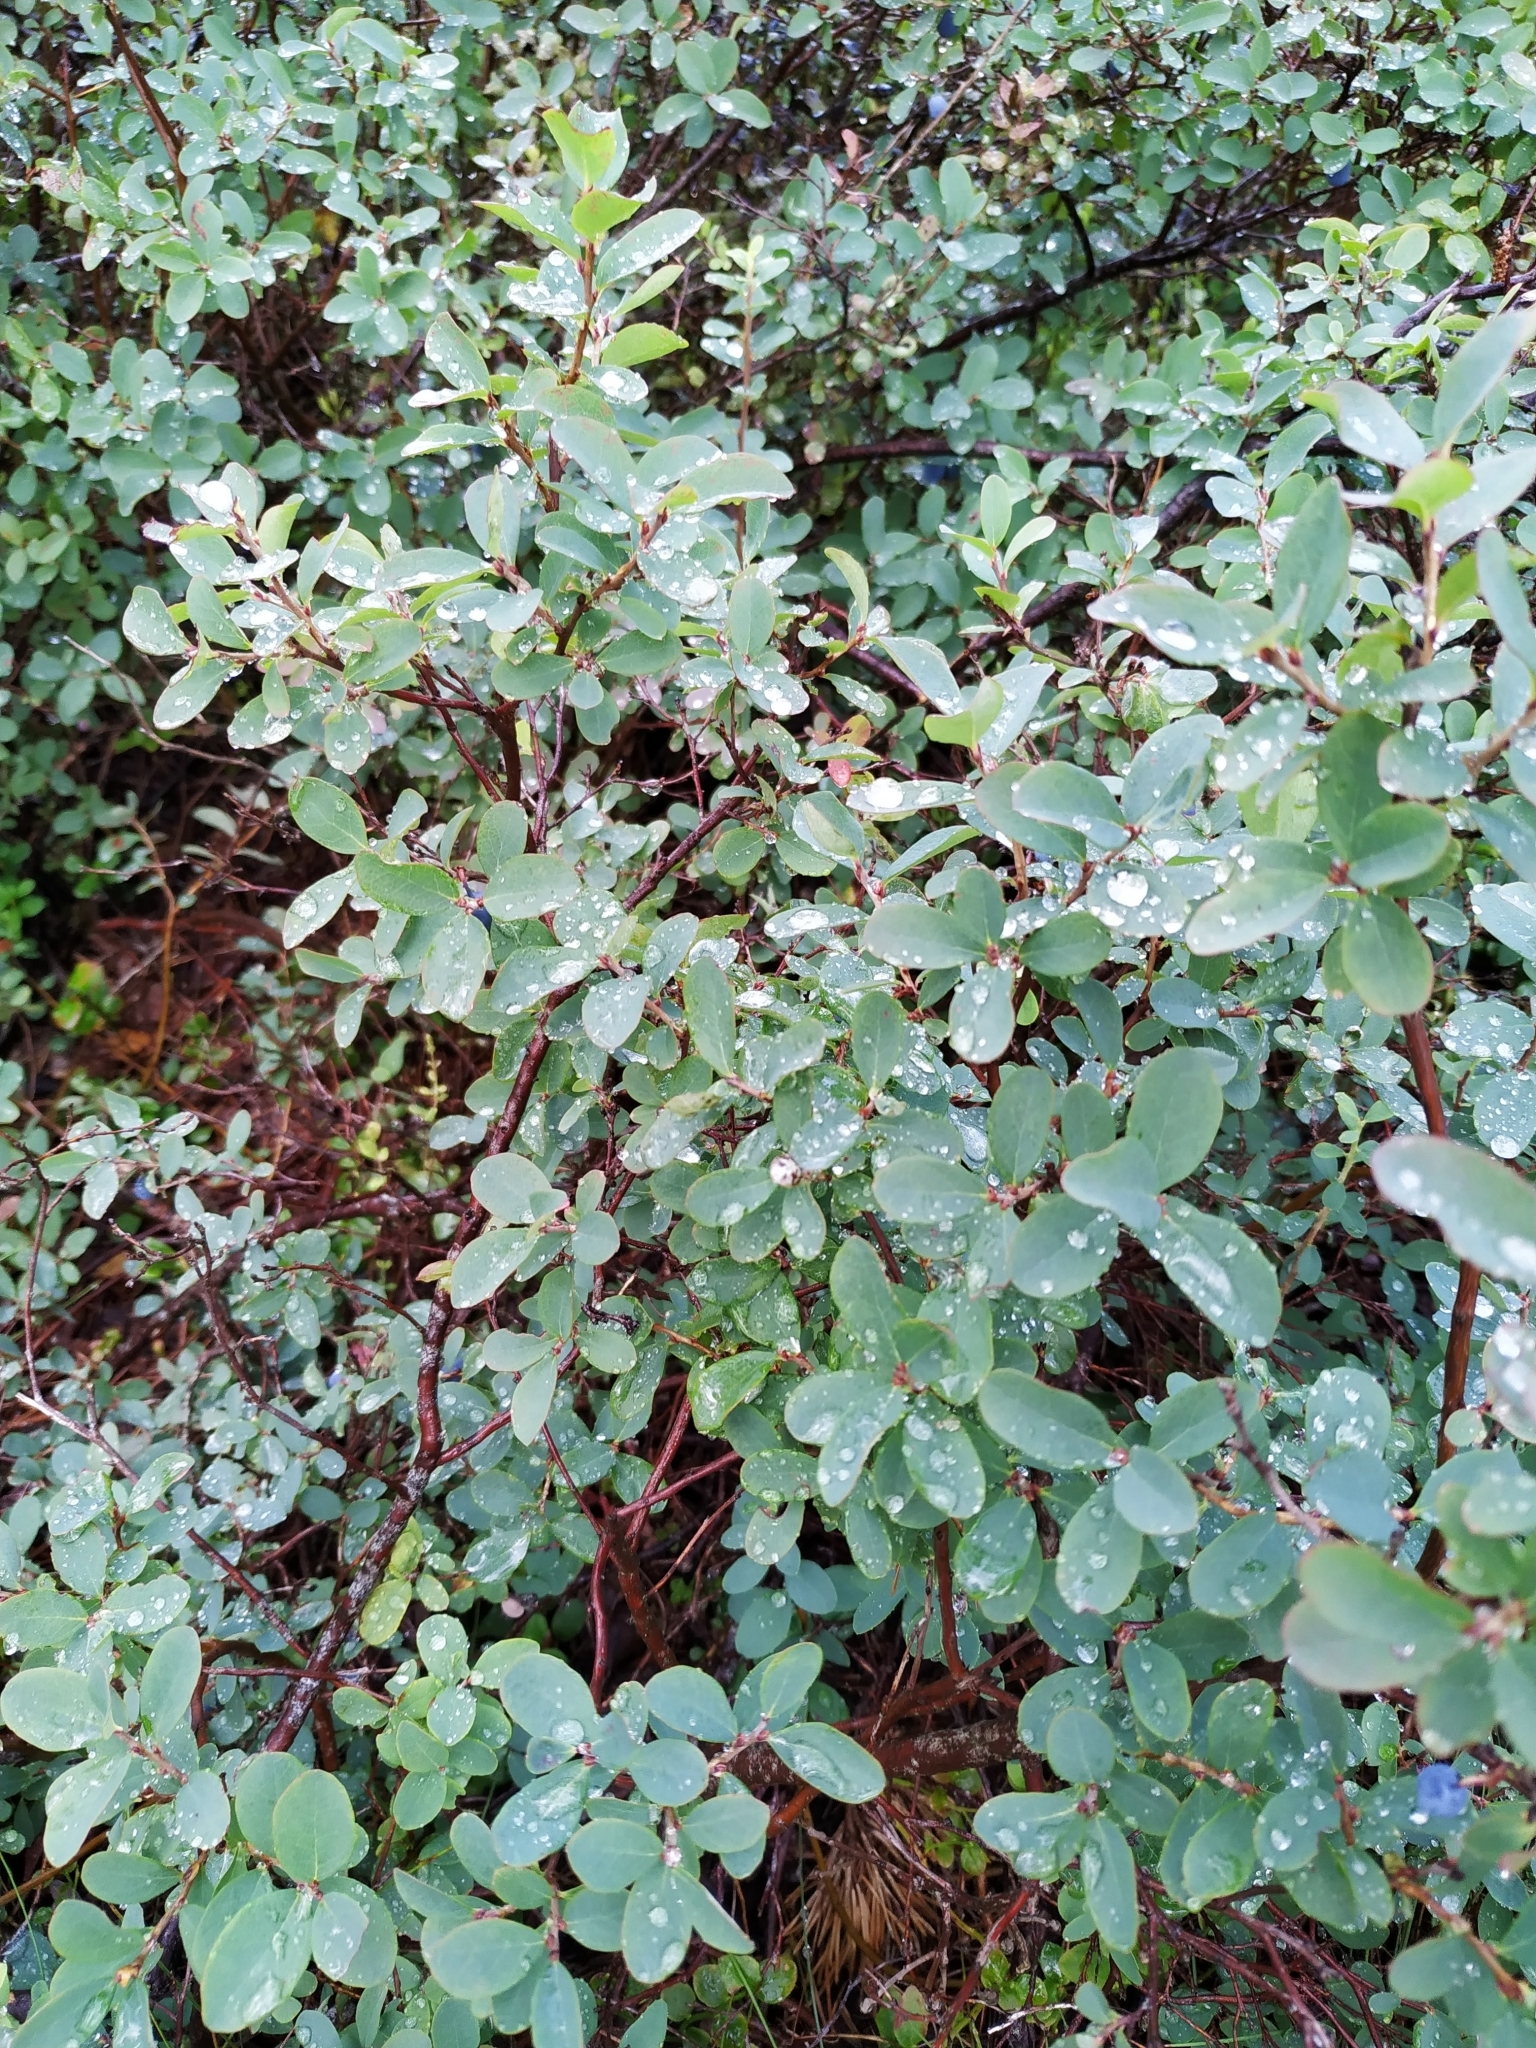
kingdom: Plantae
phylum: Tracheophyta
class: Magnoliopsida
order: Ericales
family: Ericaceae
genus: Vaccinium
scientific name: Vaccinium uliginosum
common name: Bog bilberry
